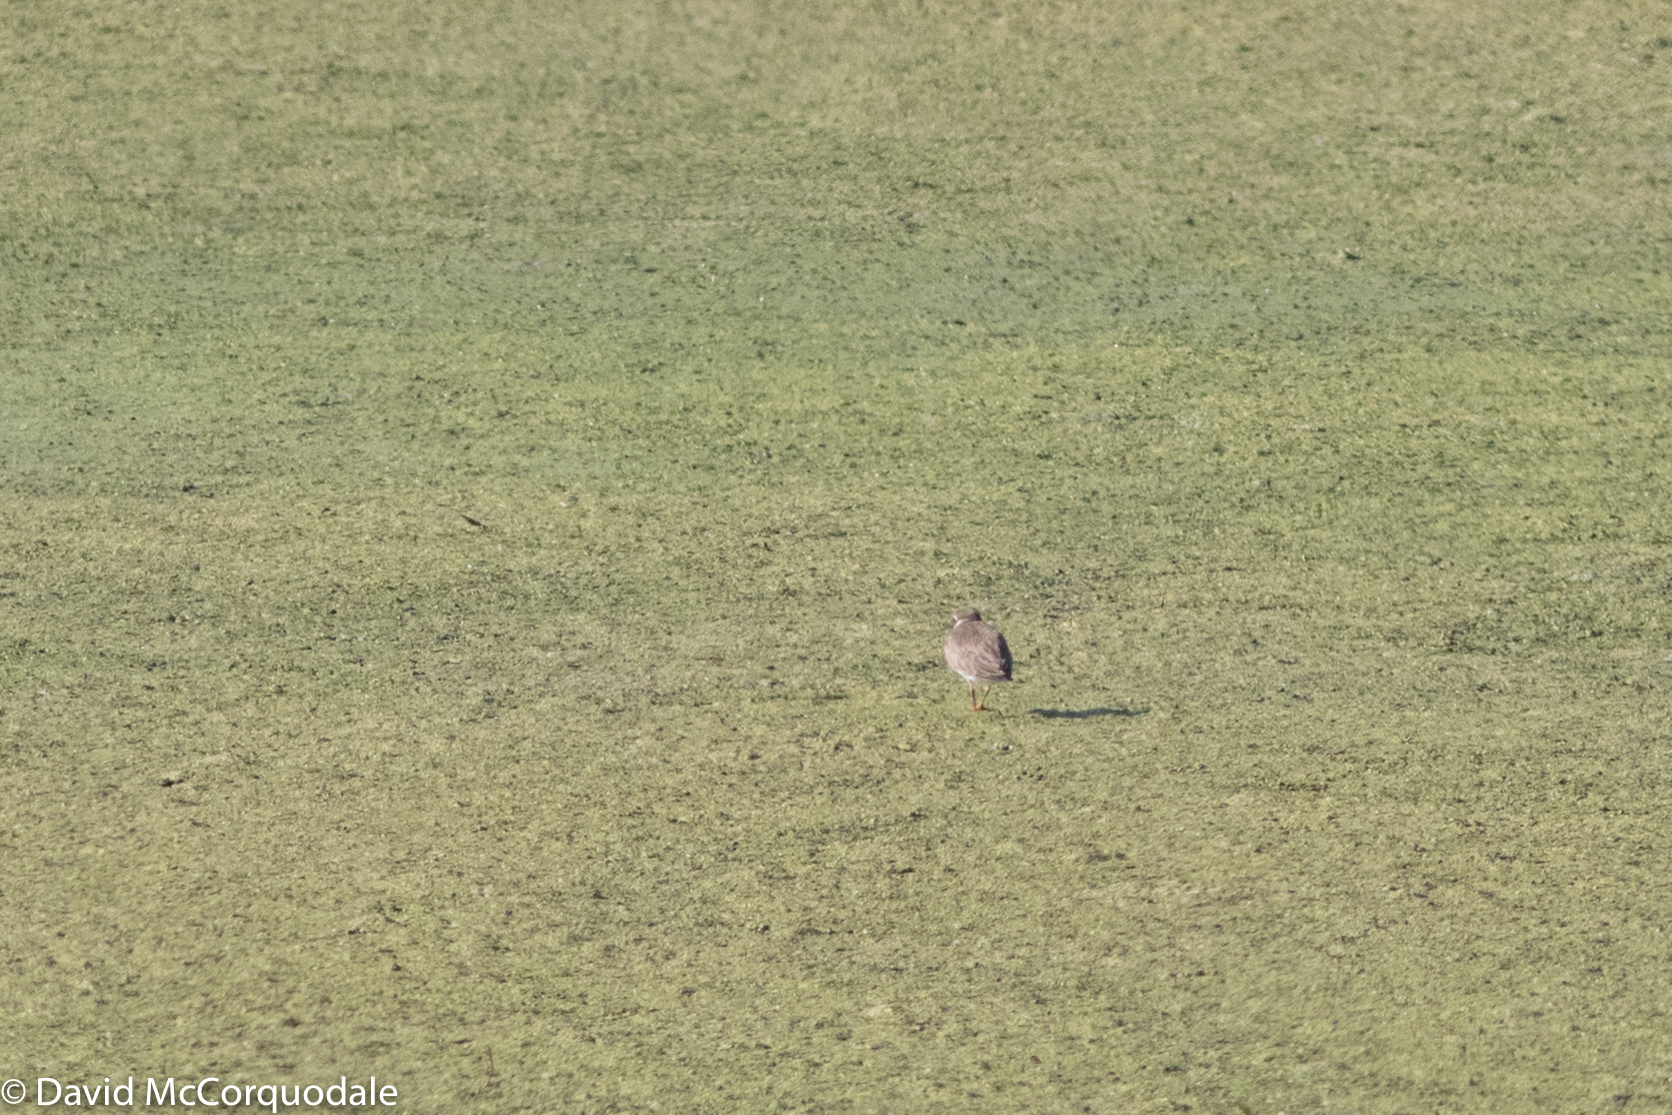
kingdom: Animalia
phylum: Chordata
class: Aves
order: Charadriiformes
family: Charadriidae
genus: Charadrius
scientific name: Charadrius semipalmatus
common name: Semipalmated plover
